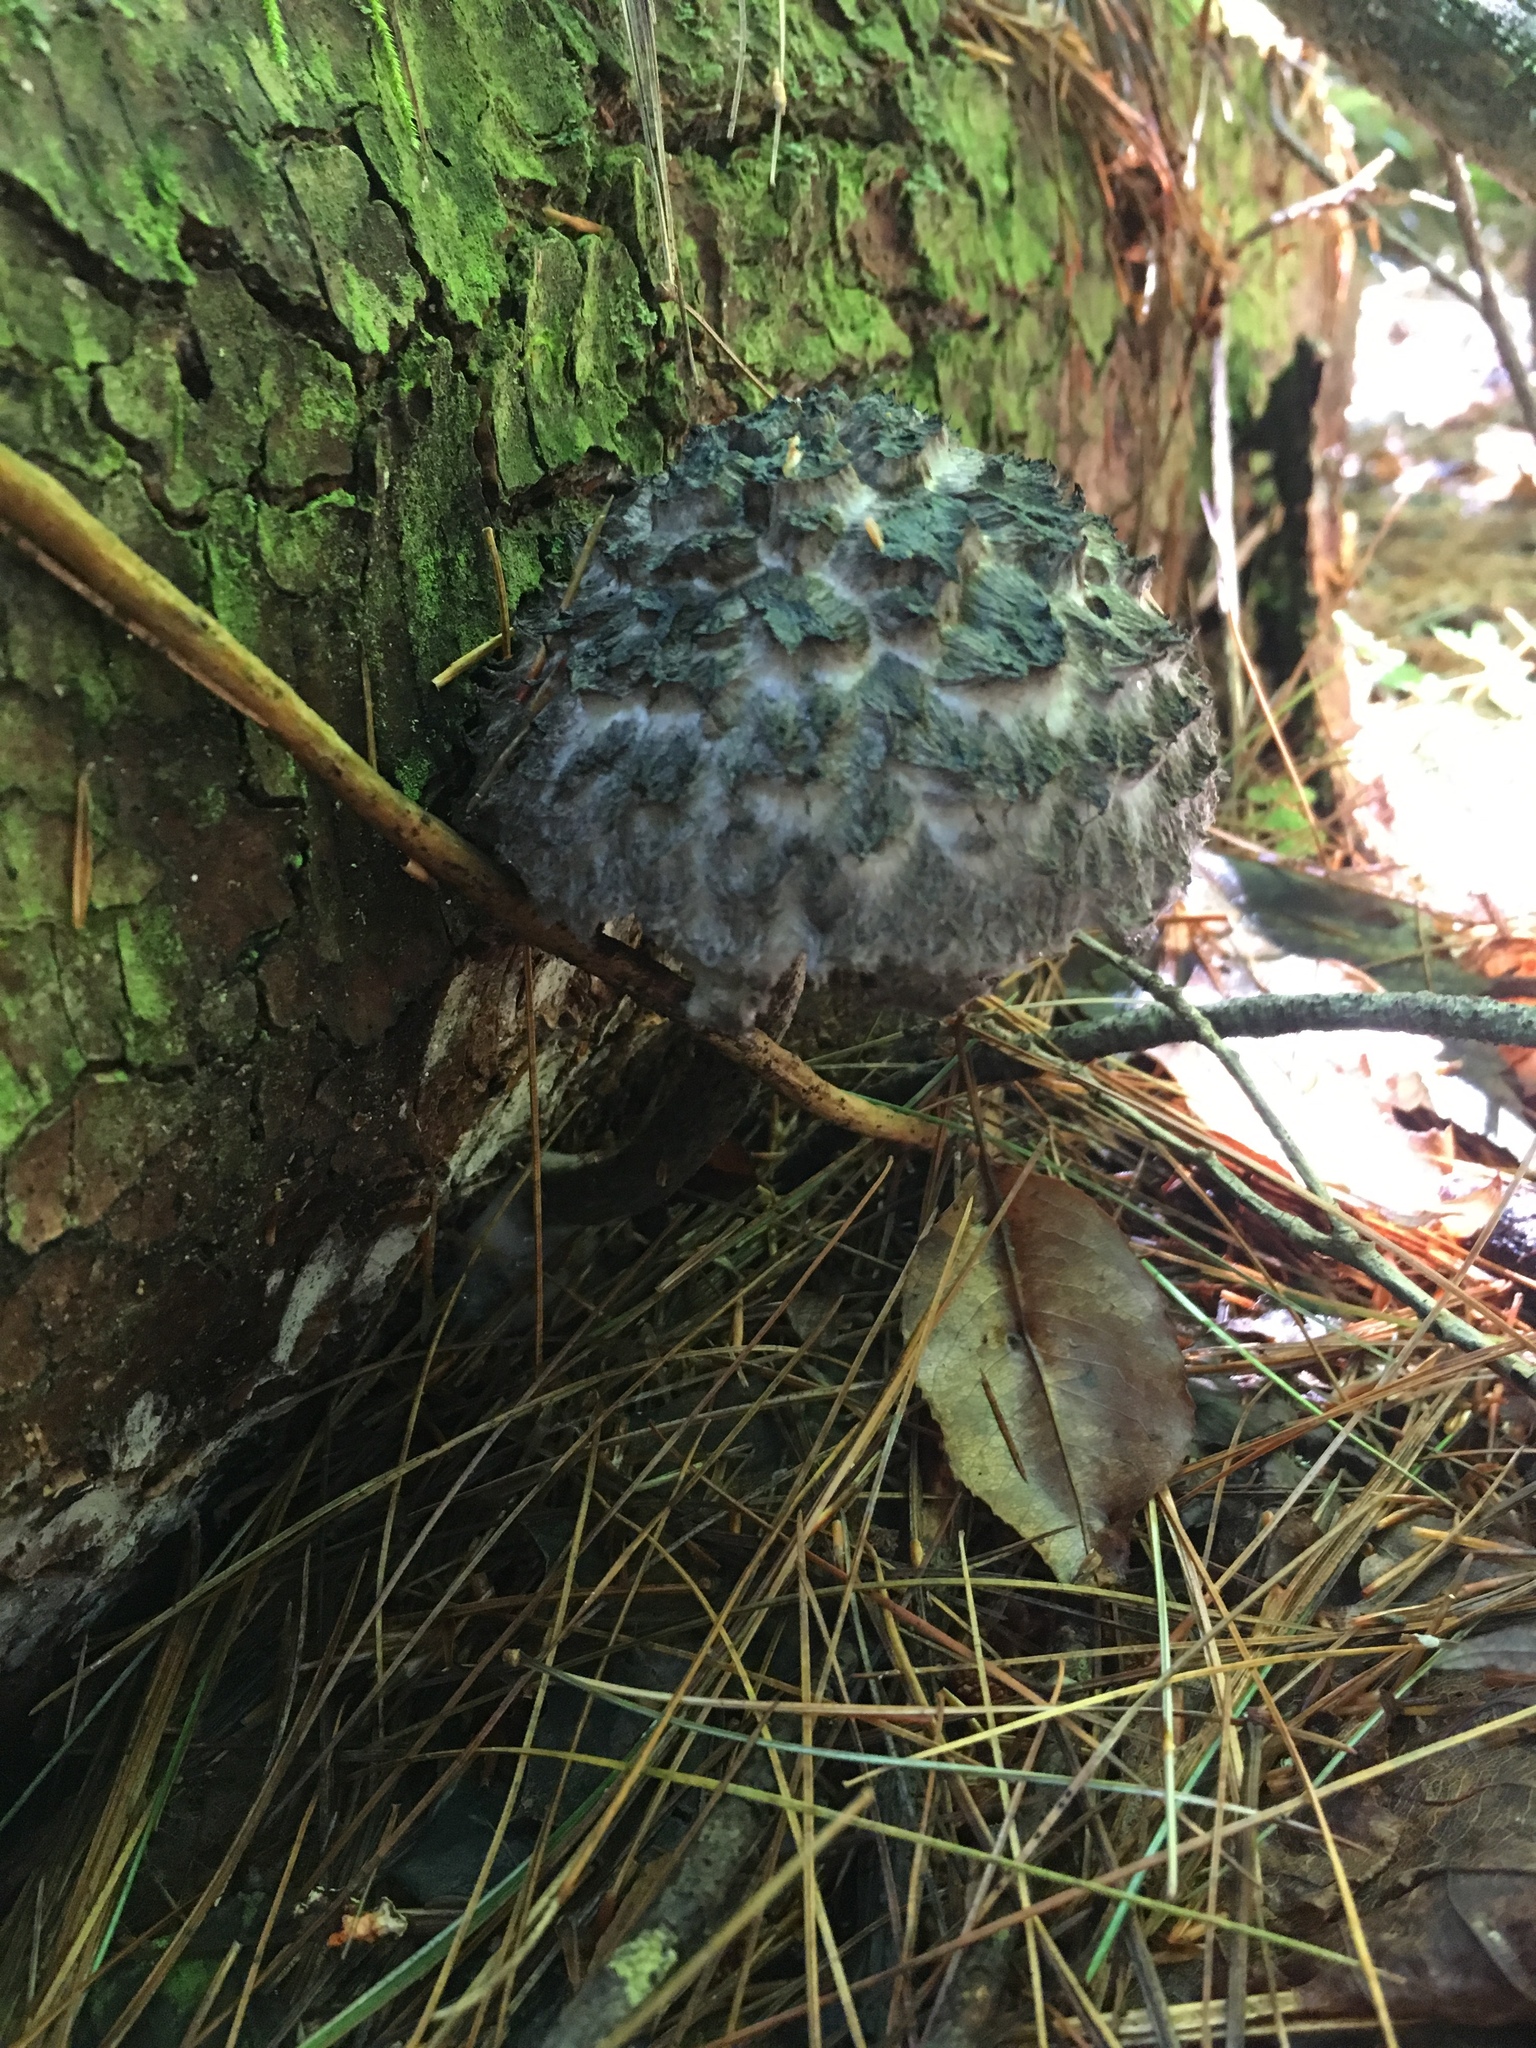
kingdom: Fungi
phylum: Basidiomycota
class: Agaricomycetes
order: Boletales
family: Boletaceae
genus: Strobilomyces
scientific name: Strobilomyces strobilaceus
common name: Old man of the woods
